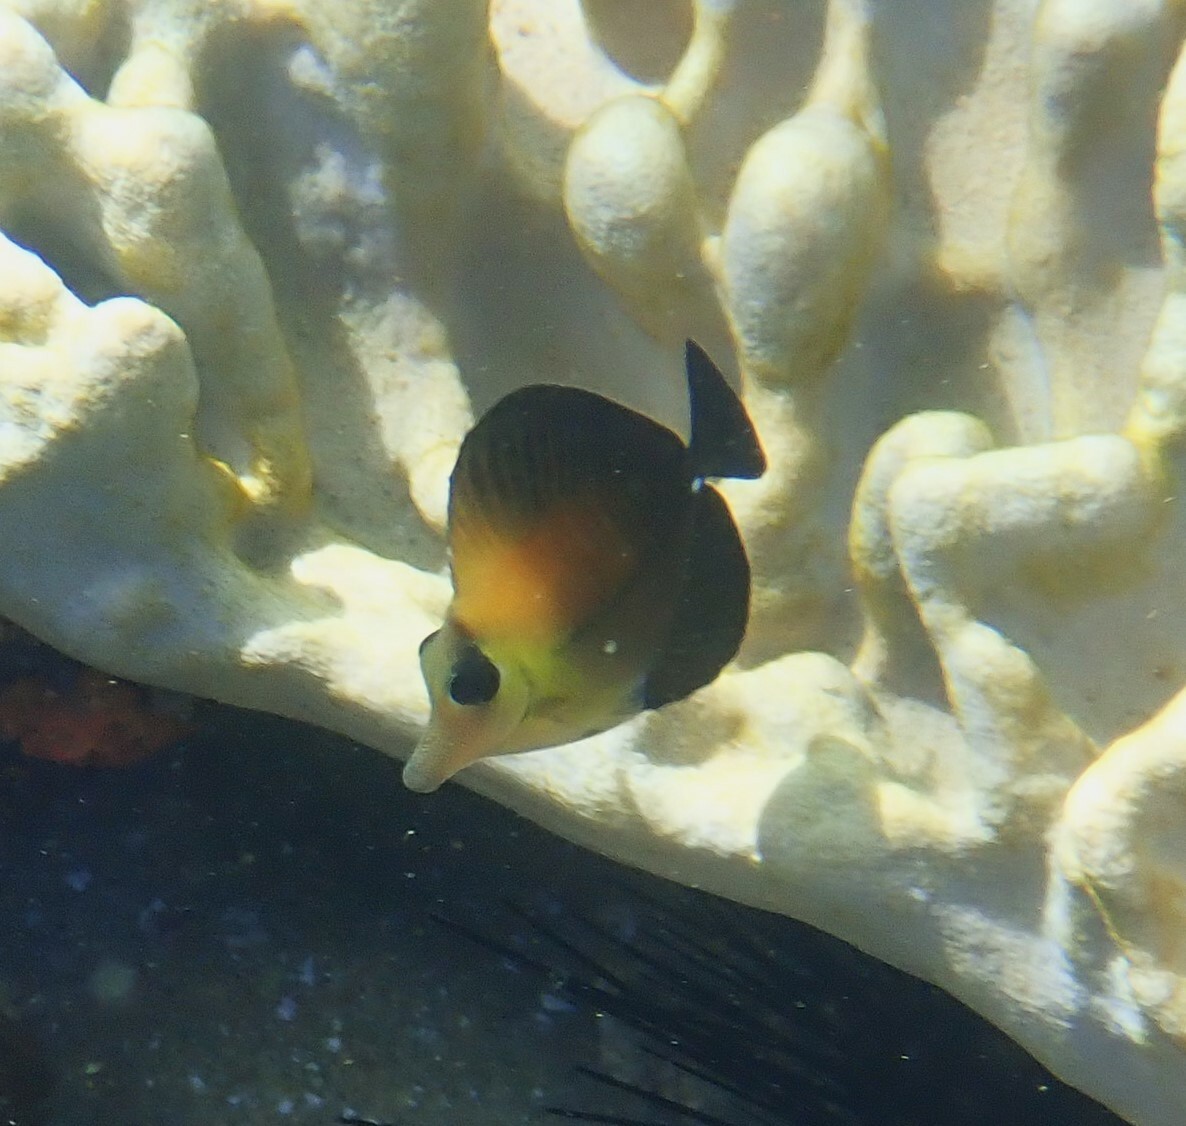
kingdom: Animalia
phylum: Chordata
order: Perciformes
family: Acanthuridae
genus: Zebrasoma
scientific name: Zebrasoma scopas
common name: Twotone tang
